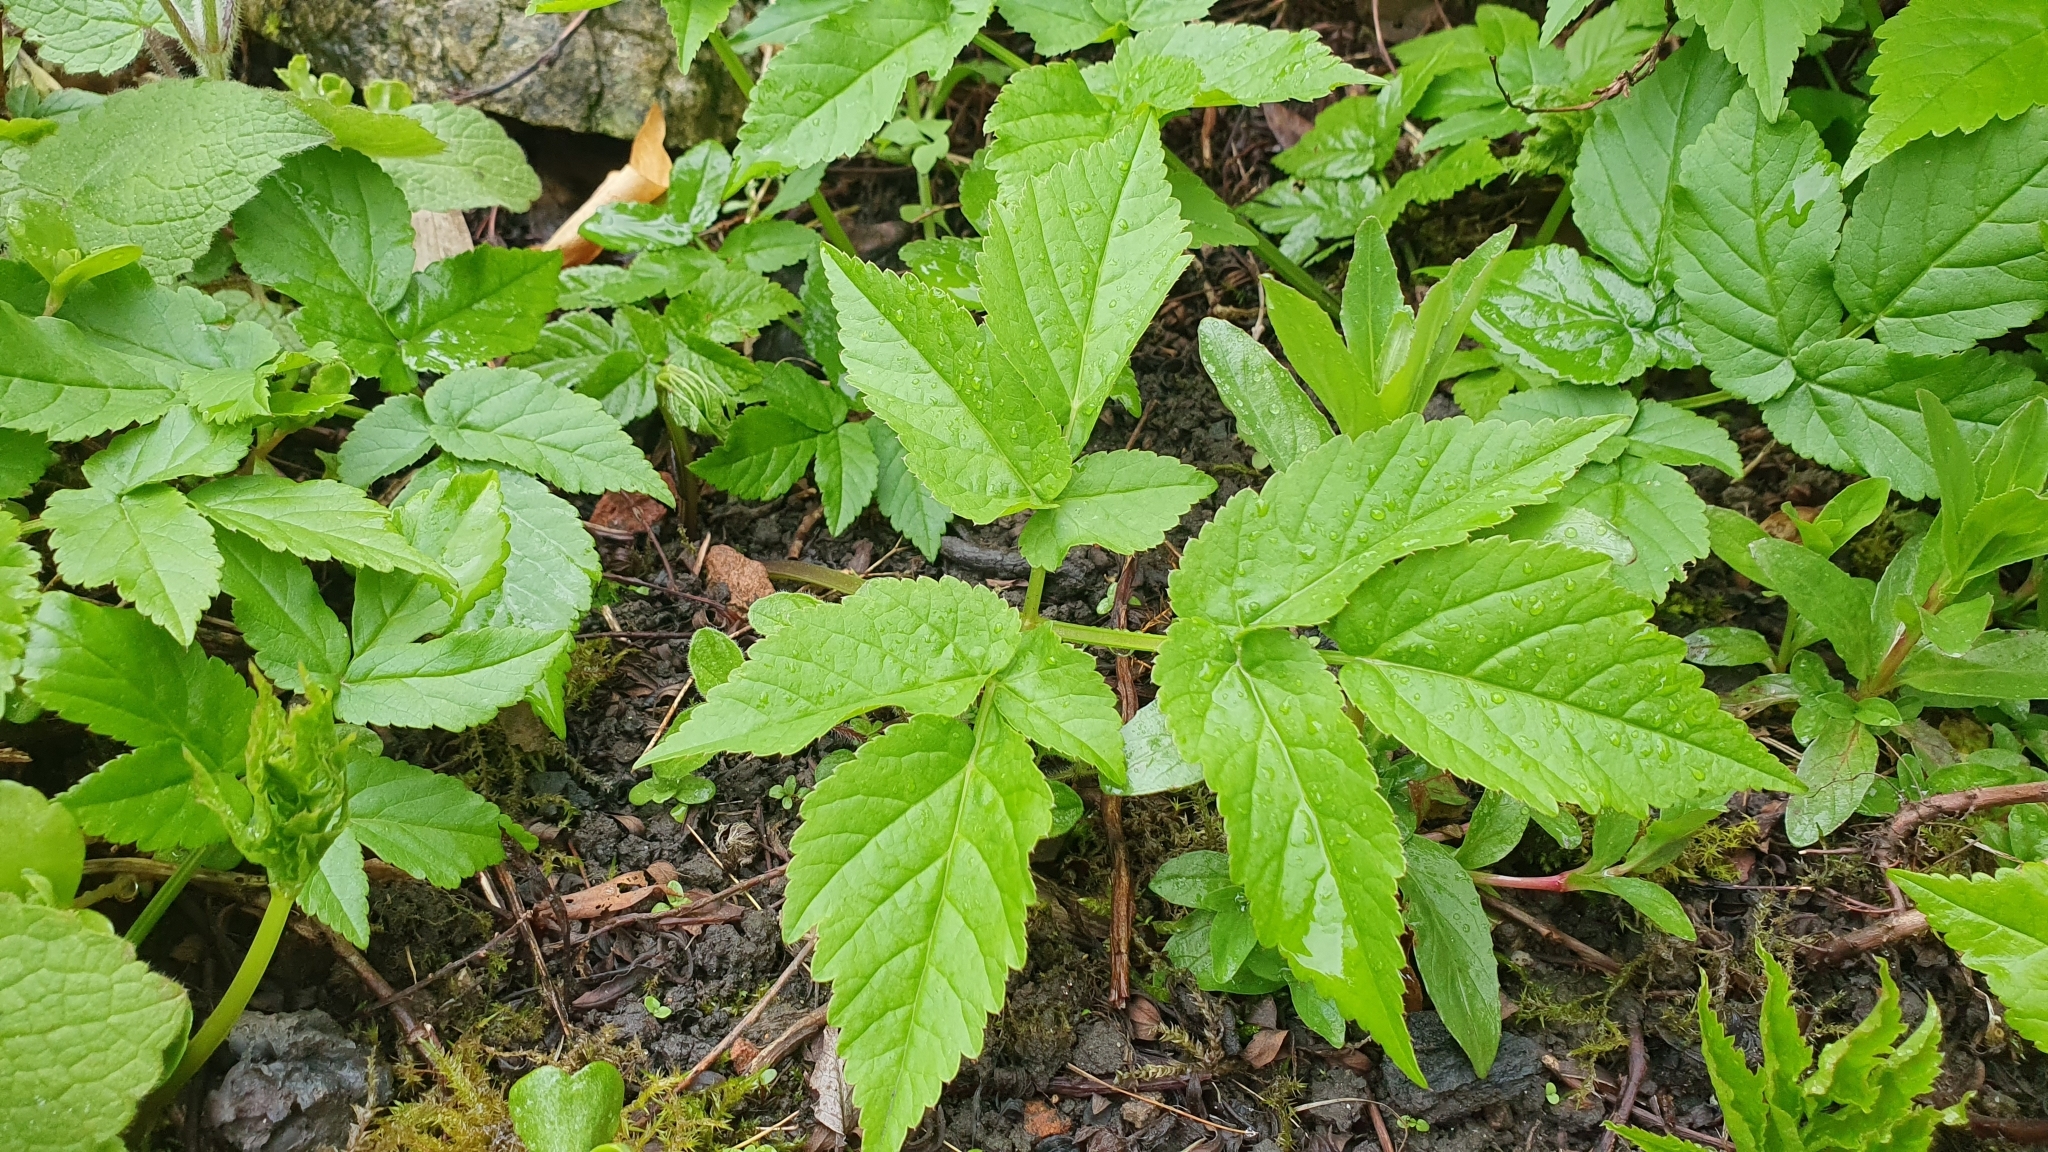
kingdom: Plantae
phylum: Tracheophyta
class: Magnoliopsida
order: Apiales
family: Apiaceae
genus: Aegopodium
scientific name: Aegopodium podagraria
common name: Ground-elder
